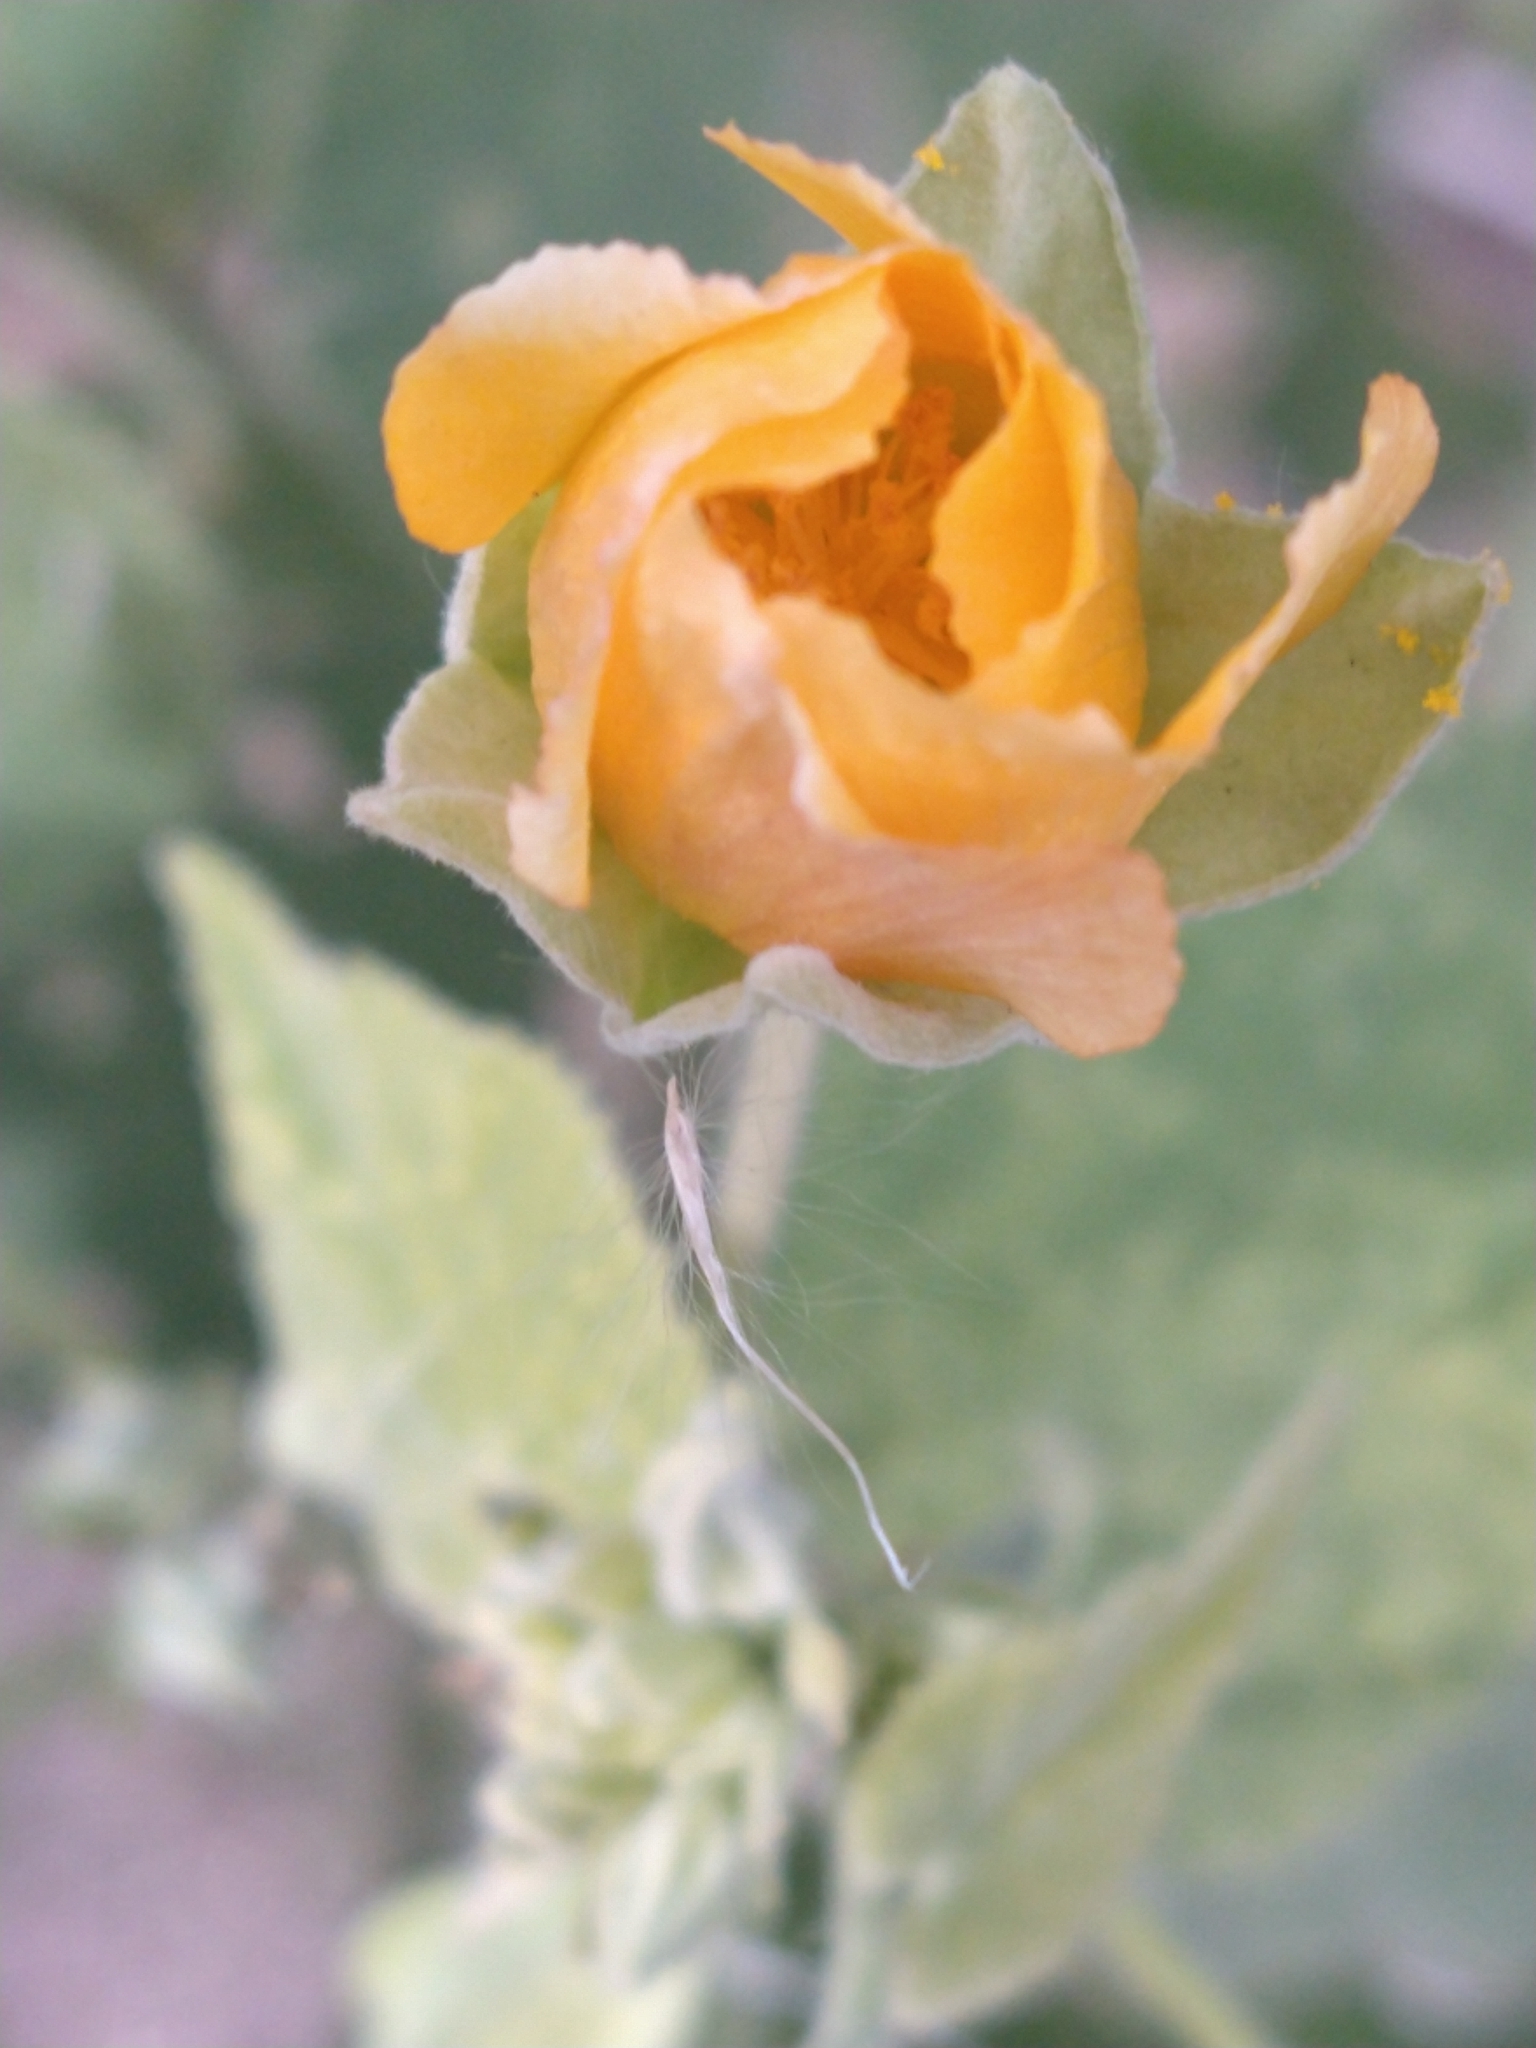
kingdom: Plantae
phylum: Tracheophyta
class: Magnoliopsida
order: Malvales
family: Malvaceae
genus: Abutilon
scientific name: Abutilon grandifolium
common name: Hairy abutilon
